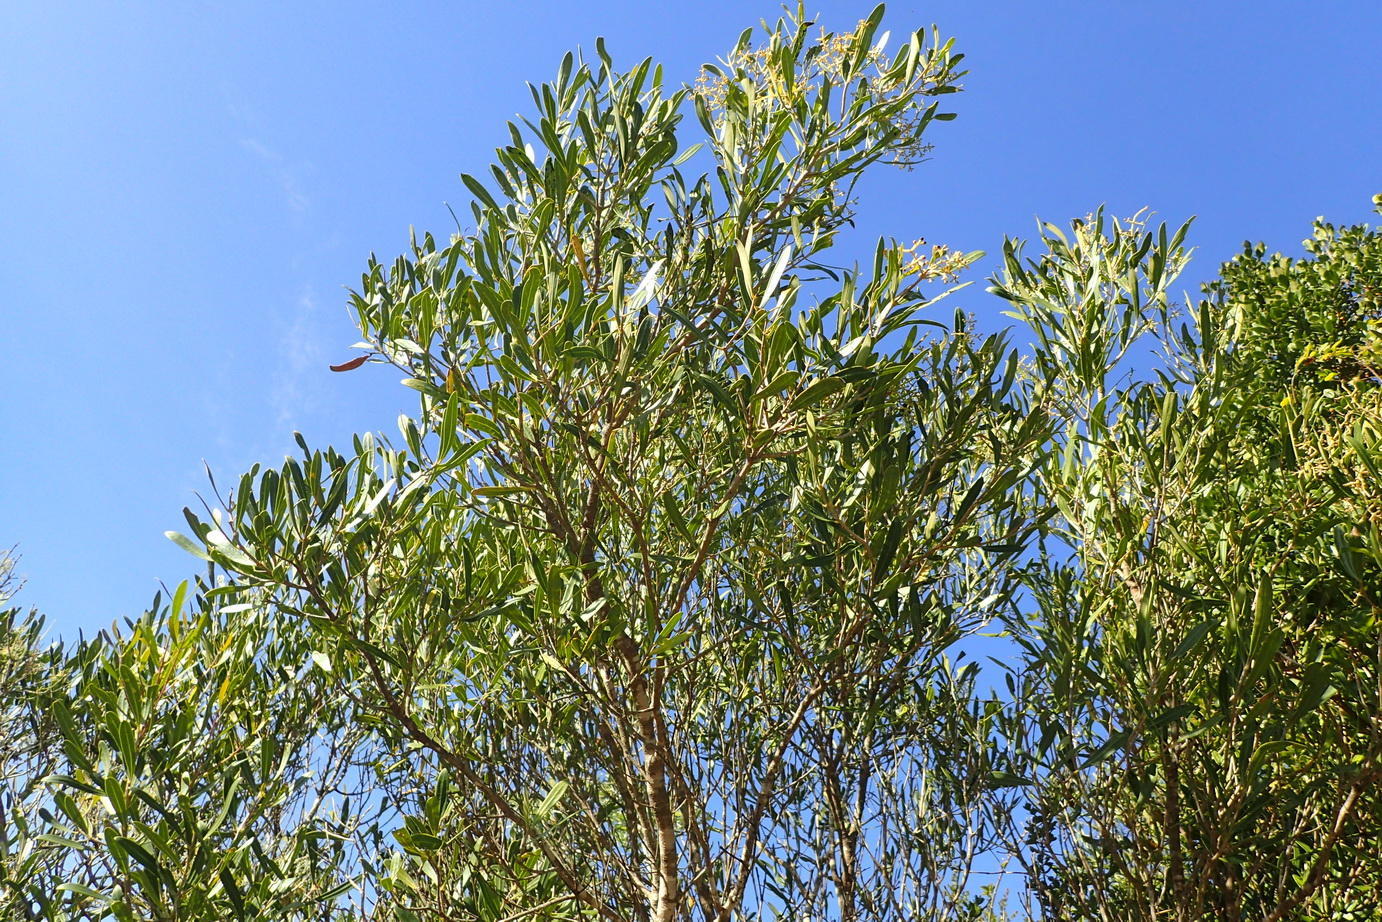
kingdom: Plantae
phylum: Tracheophyta
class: Magnoliopsida
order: Lamiales
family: Oleaceae
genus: Olea
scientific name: Olea exasperata
